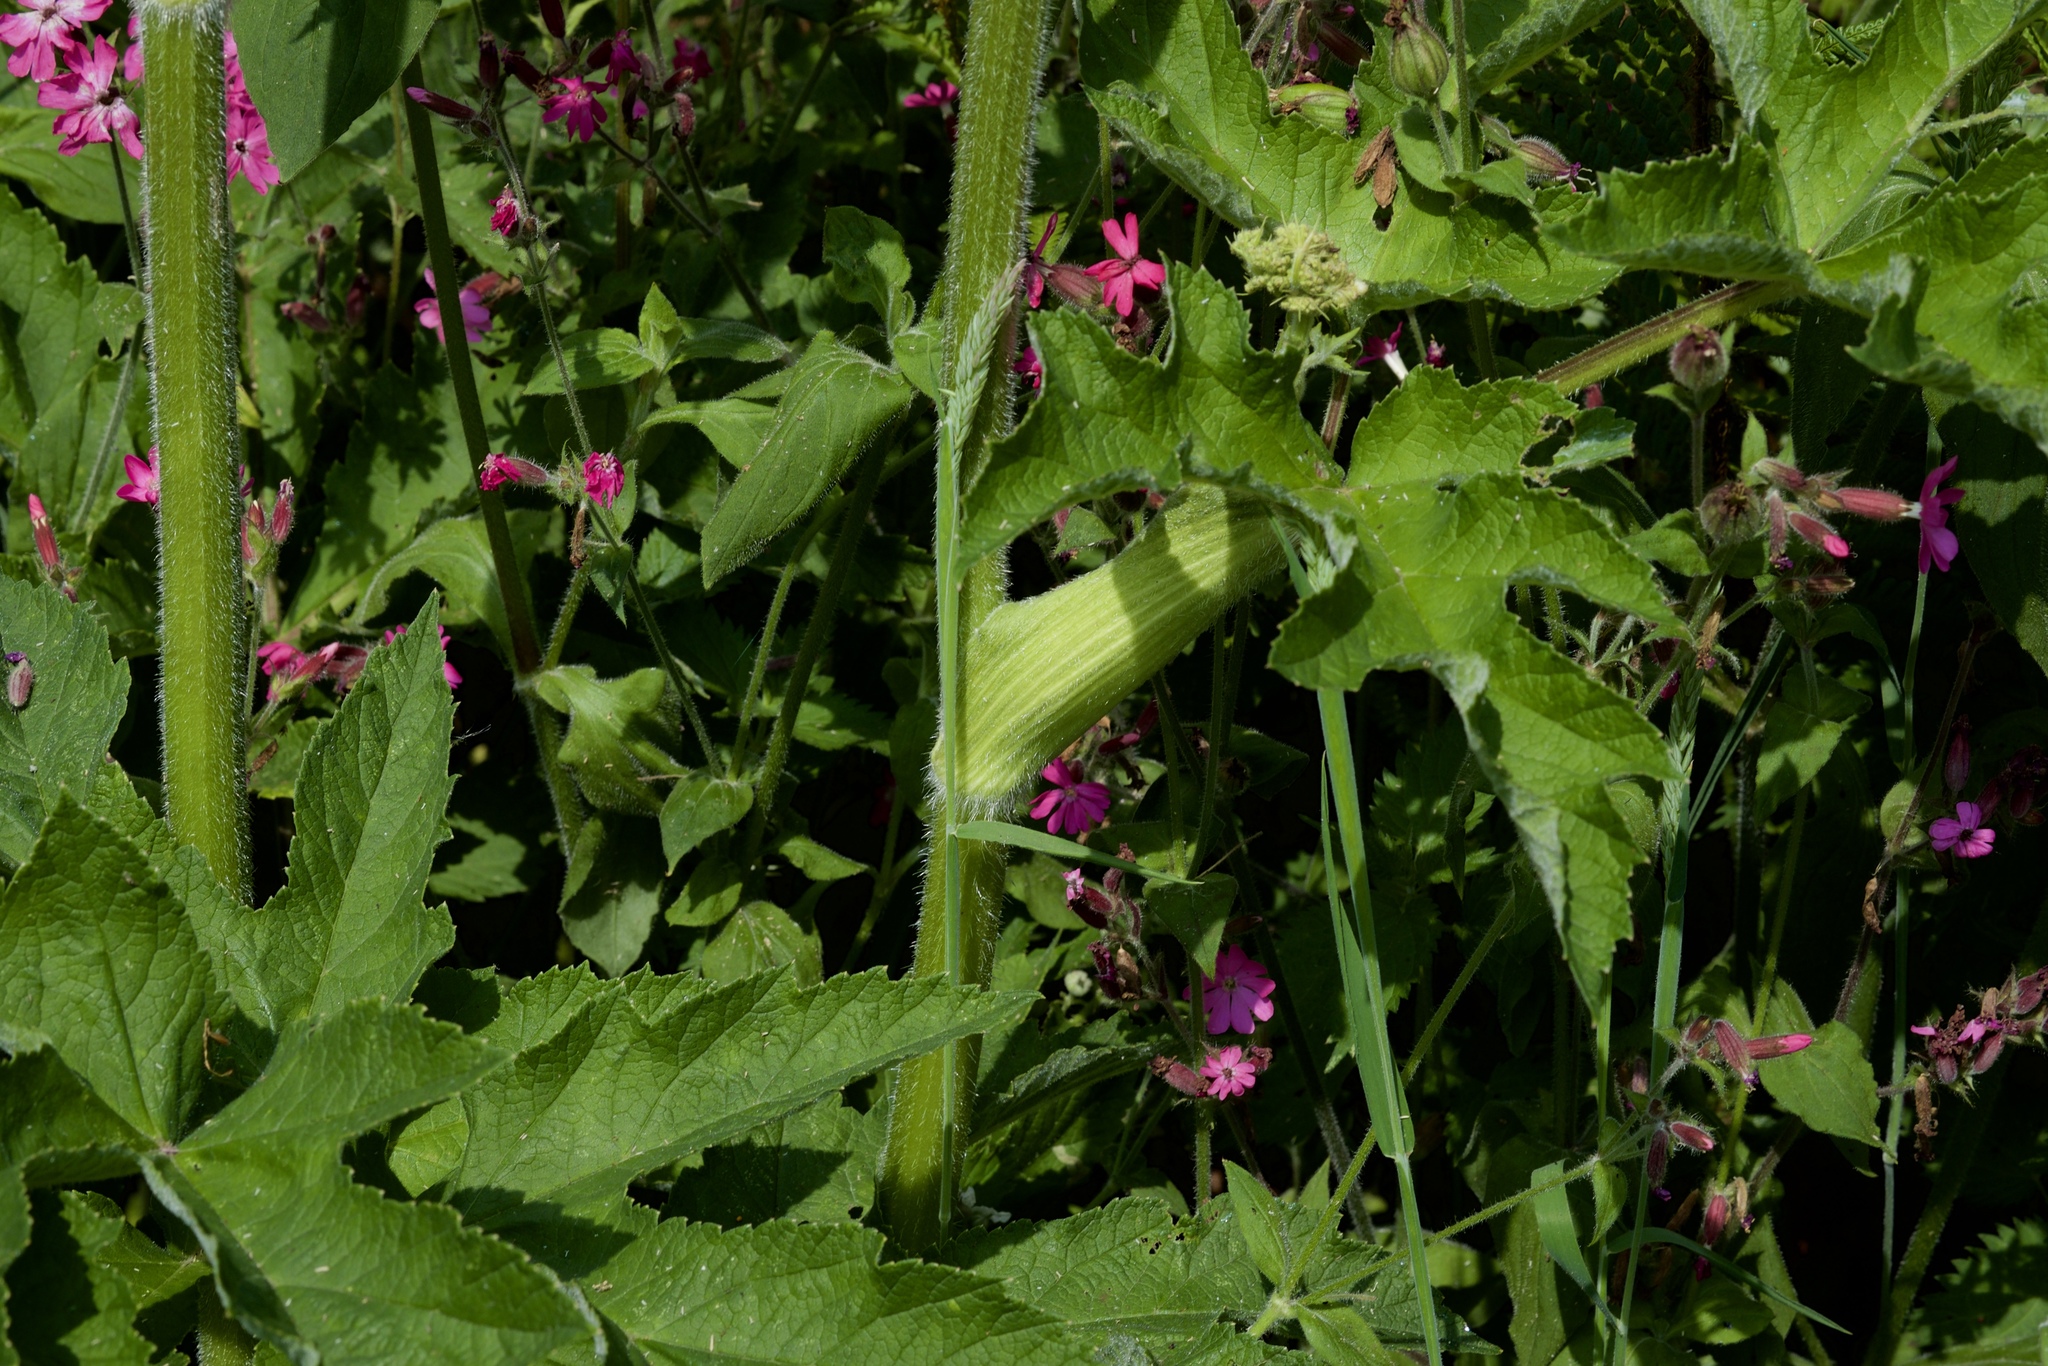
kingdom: Plantae
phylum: Tracheophyta
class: Magnoliopsida
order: Apiales
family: Apiaceae
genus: Heracleum
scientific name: Heracleum sphondylium
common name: Hogweed
